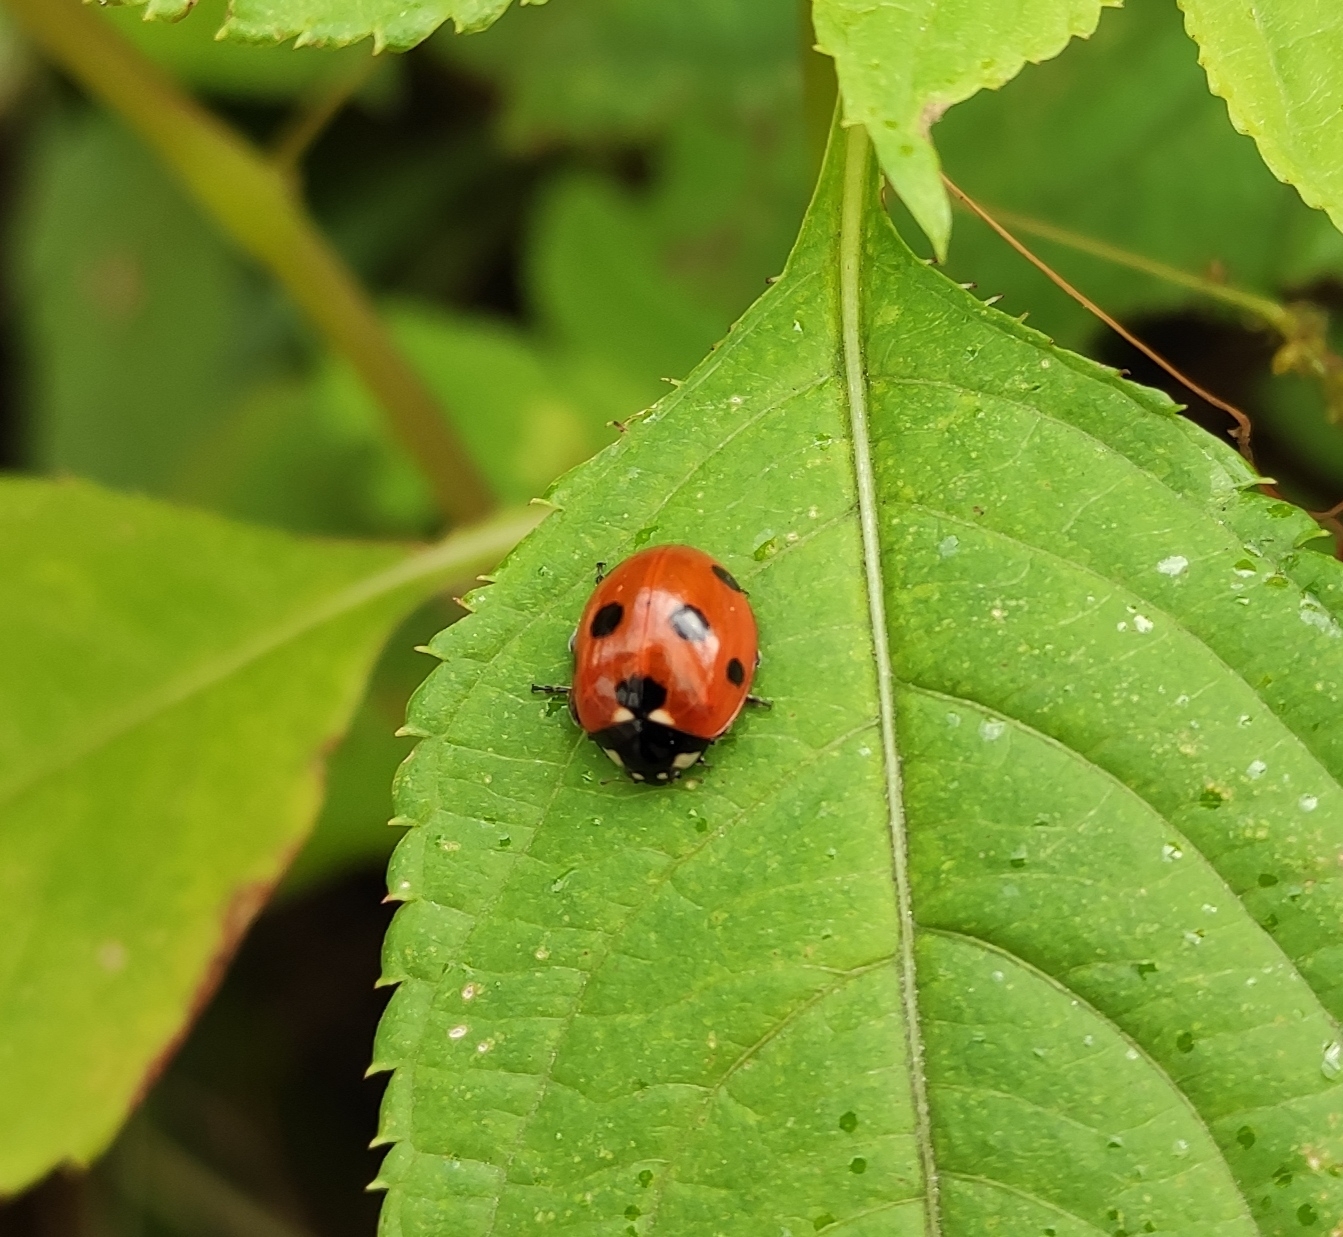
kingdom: Animalia
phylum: Arthropoda
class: Insecta
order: Coleoptera
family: Coccinellidae
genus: Coccinella
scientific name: Coccinella septempunctata
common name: Sevenspotted lady beetle
